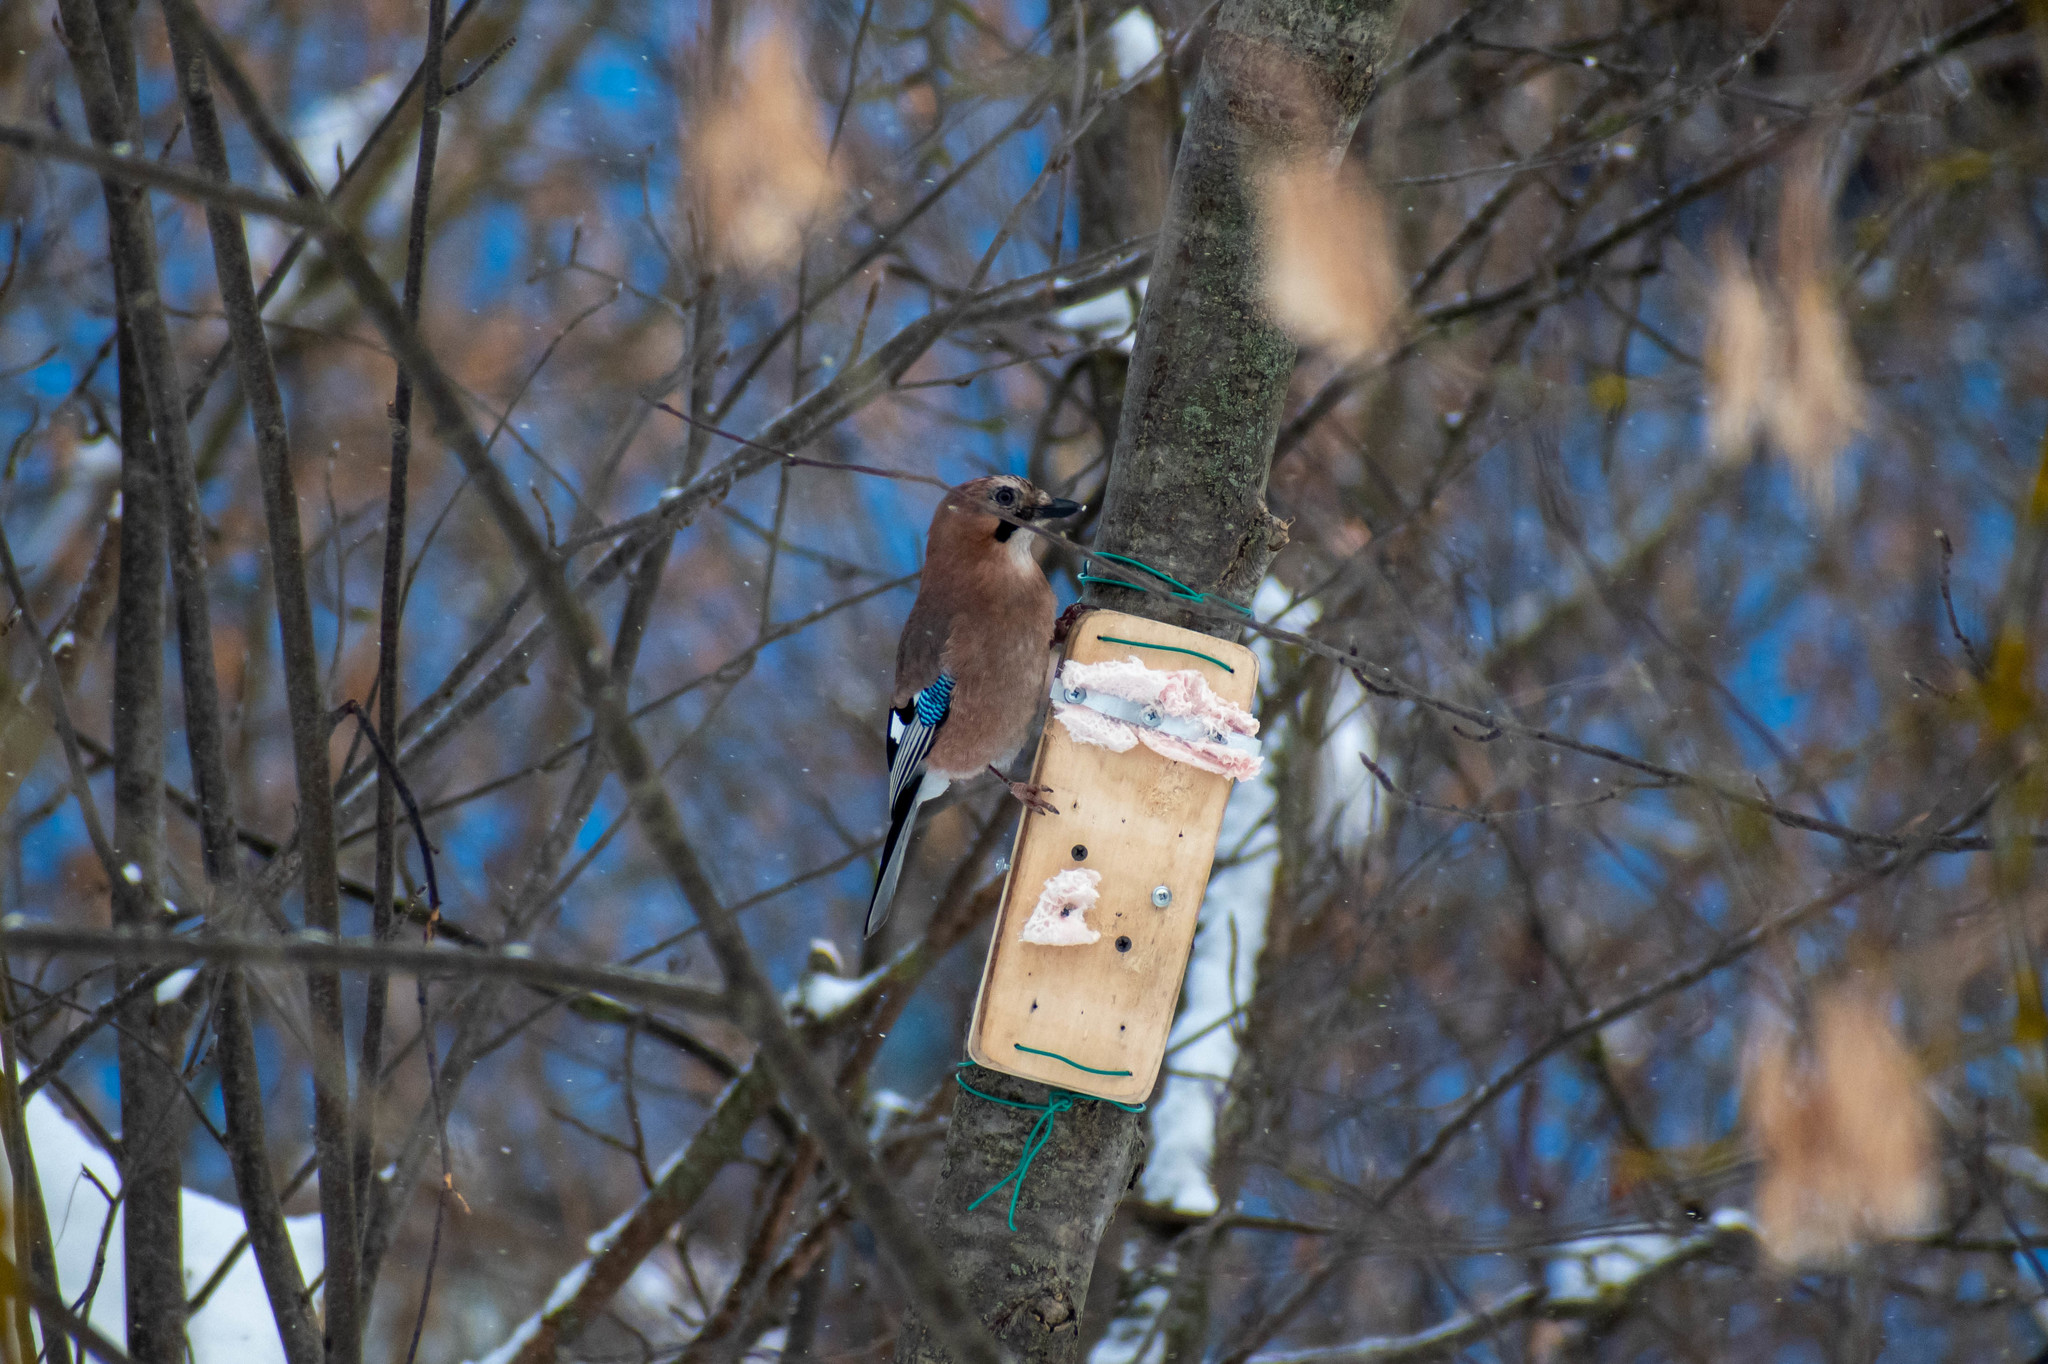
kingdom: Animalia
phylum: Chordata
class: Aves
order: Passeriformes
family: Corvidae
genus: Garrulus
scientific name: Garrulus glandarius
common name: Eurasian jay
